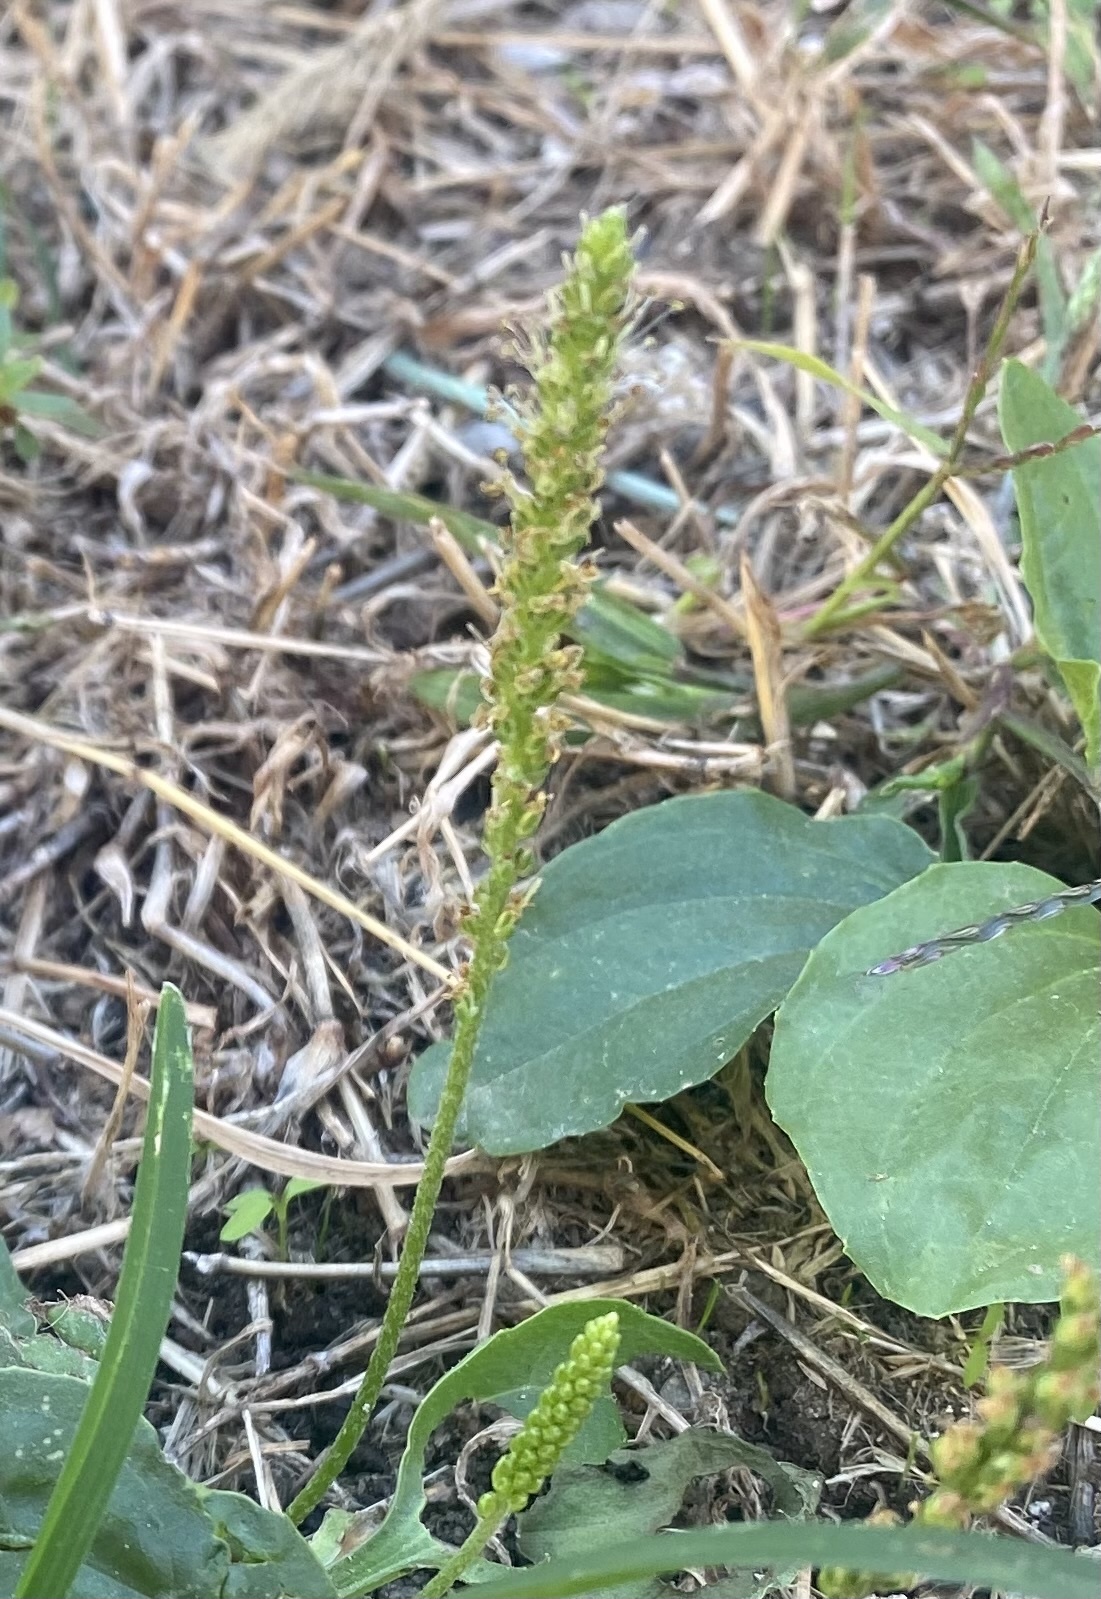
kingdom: Plantae
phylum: Tracheophyta
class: Magnoliopsida
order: Lamiales
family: Plantaginaceae
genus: Plantago
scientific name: Plantago major
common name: Common plantain
